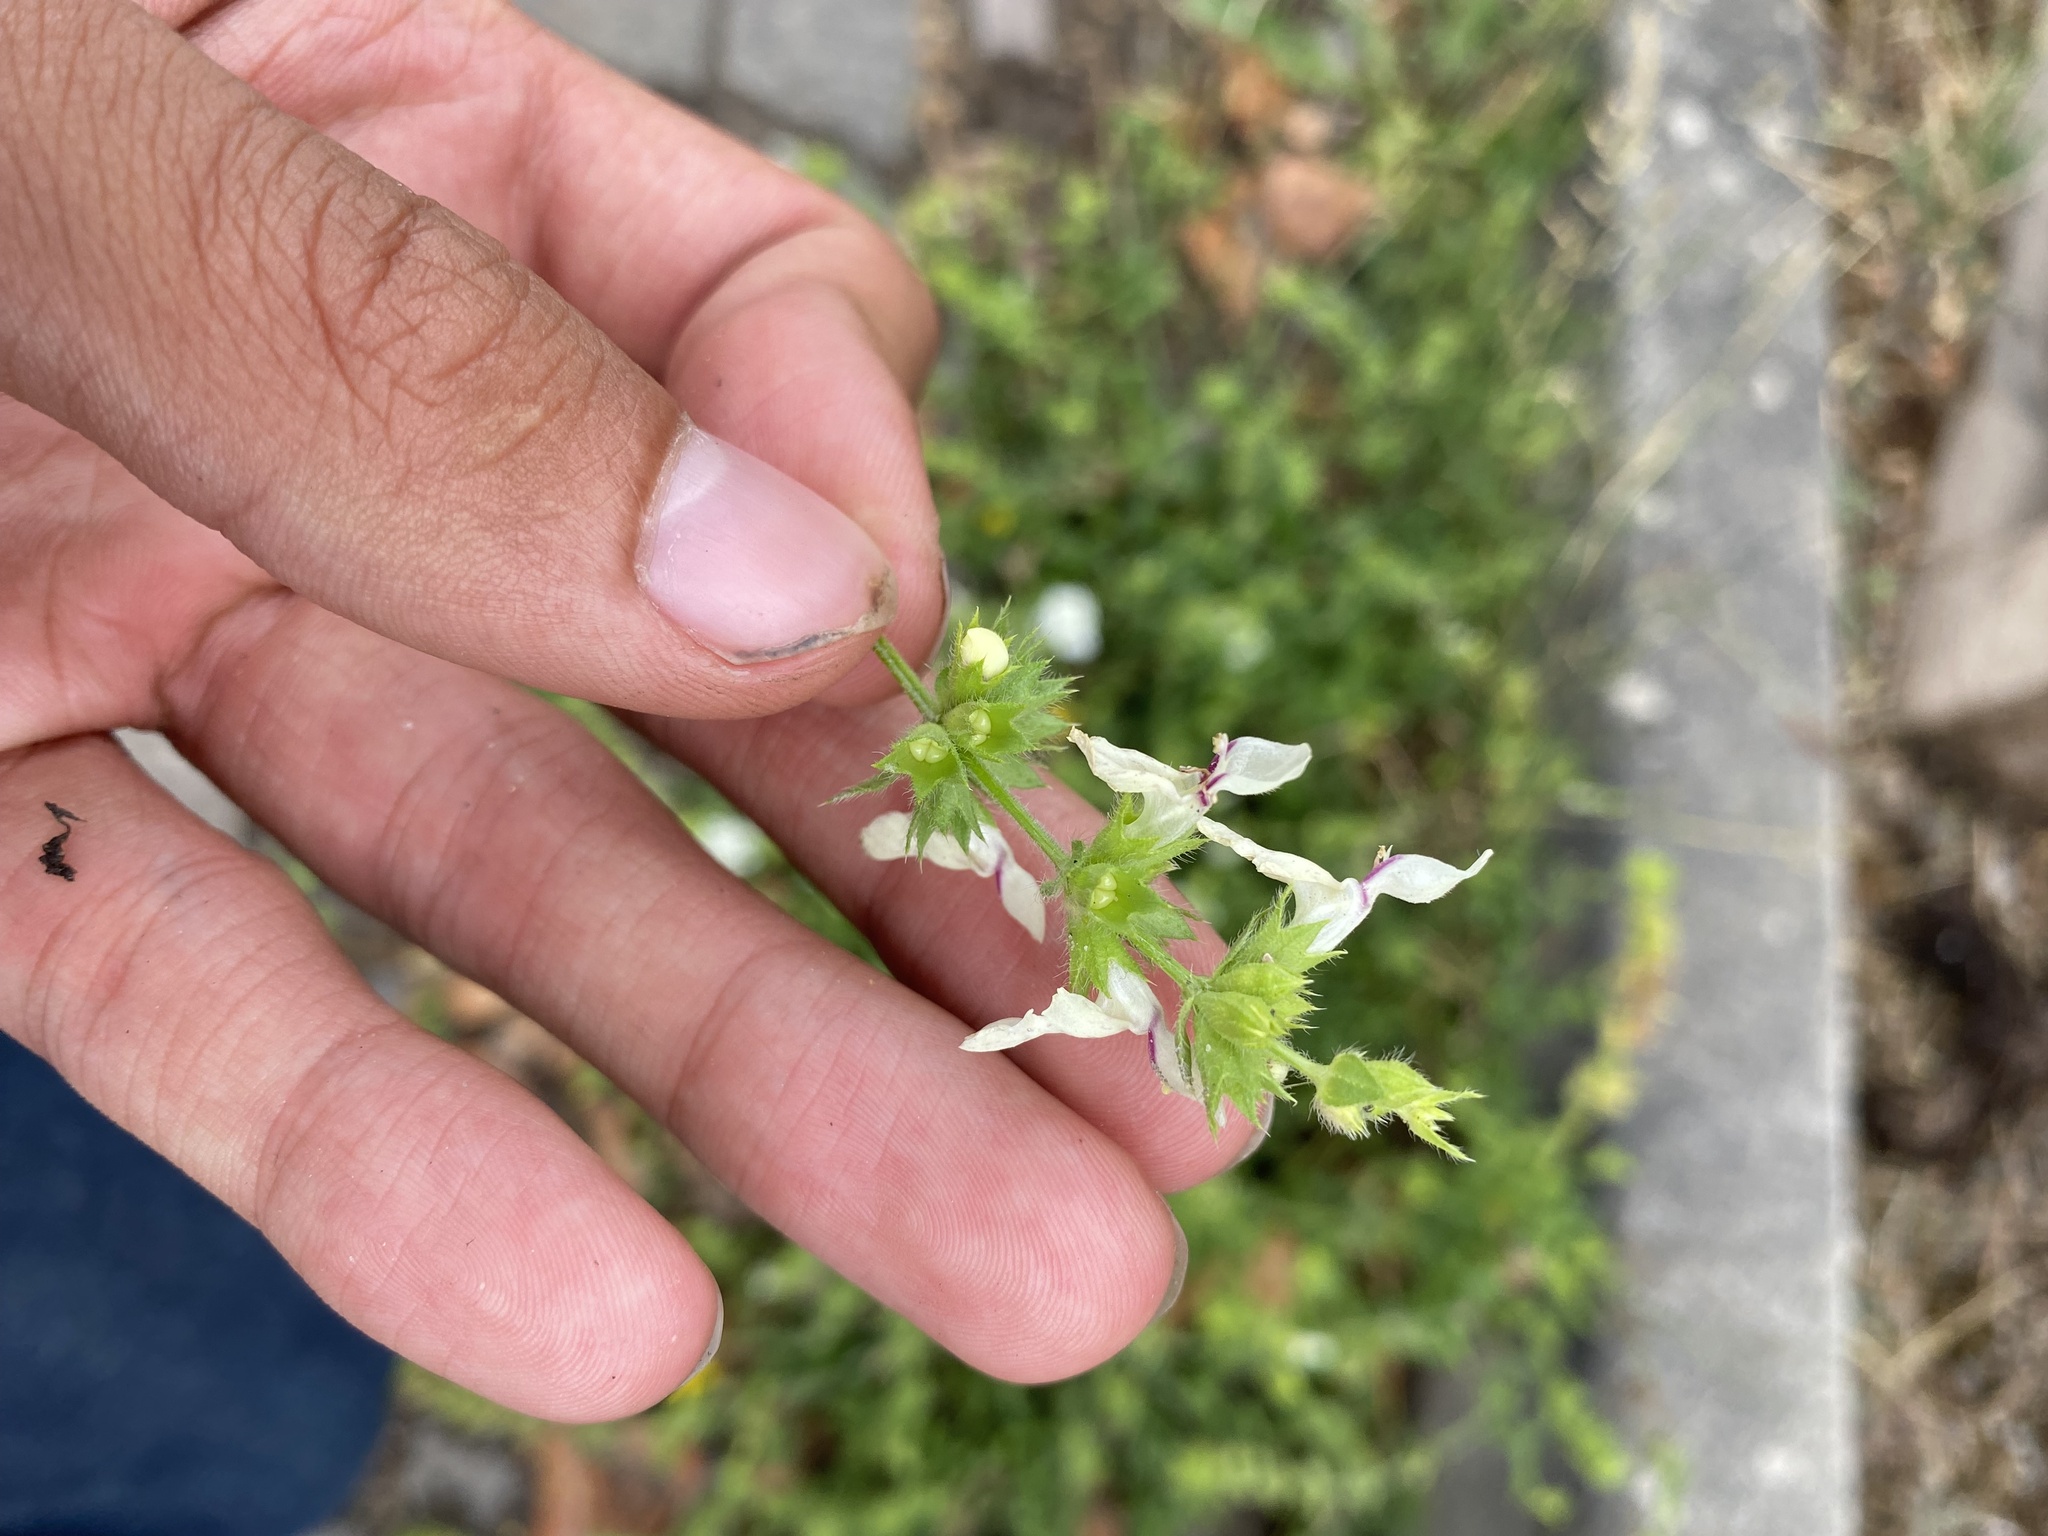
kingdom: Plantae
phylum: Tracheophyta
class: Magnoliopsida
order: Lamiales
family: Lamiaceae
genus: Stachys
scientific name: Stachys recta
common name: Perennial yellow-woundwort
